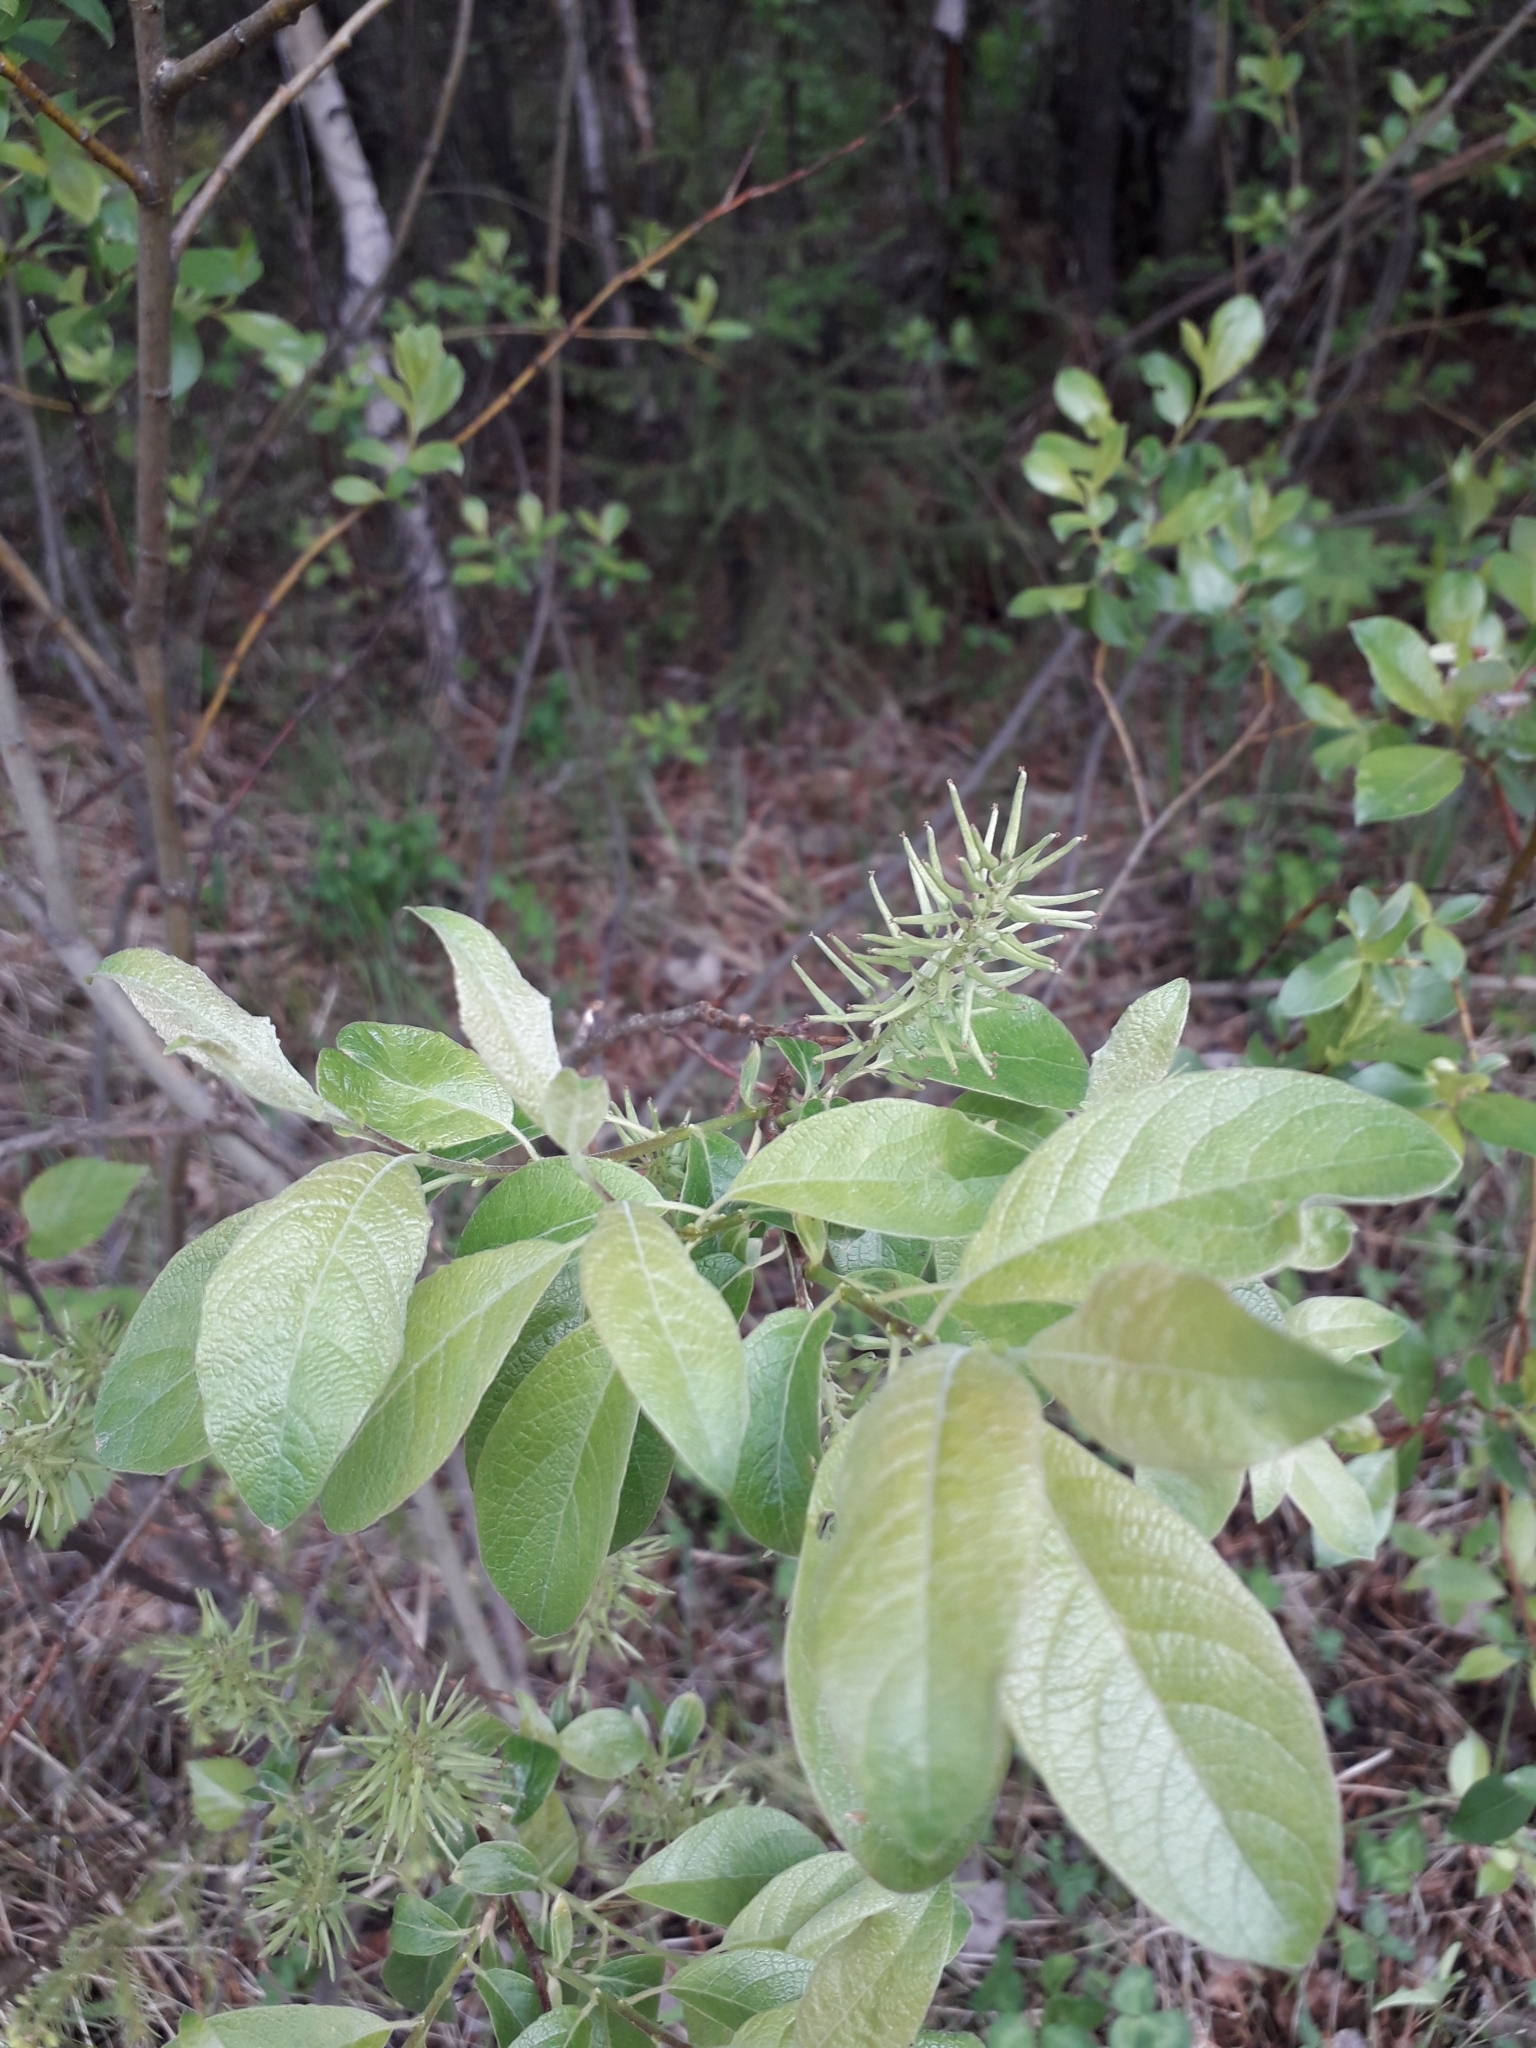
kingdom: Plantae
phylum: Tracheophyta
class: Magnoliopsida
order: Malpighiales
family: Salicaceae
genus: Salix
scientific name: Salix caprea
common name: Goat willow
